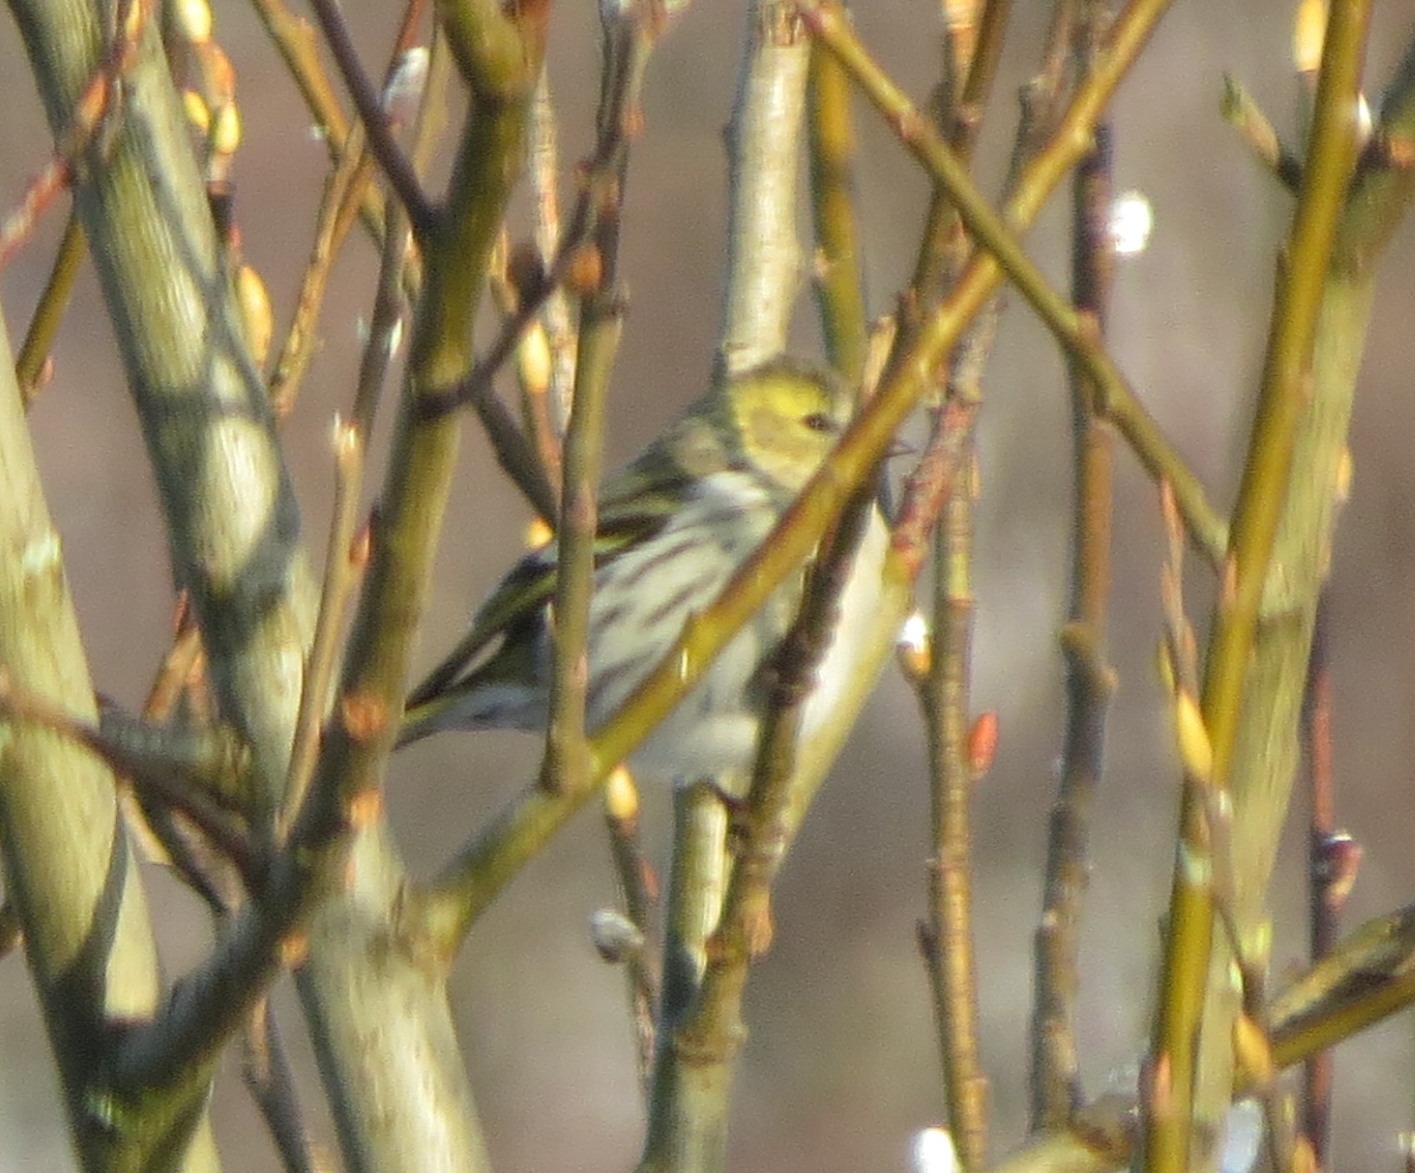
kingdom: Animalia
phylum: Chordata
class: Aves
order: Passeriformes
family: Fringillidae
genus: Spinus
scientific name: Spinus spinus
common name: Eurasian siskin
